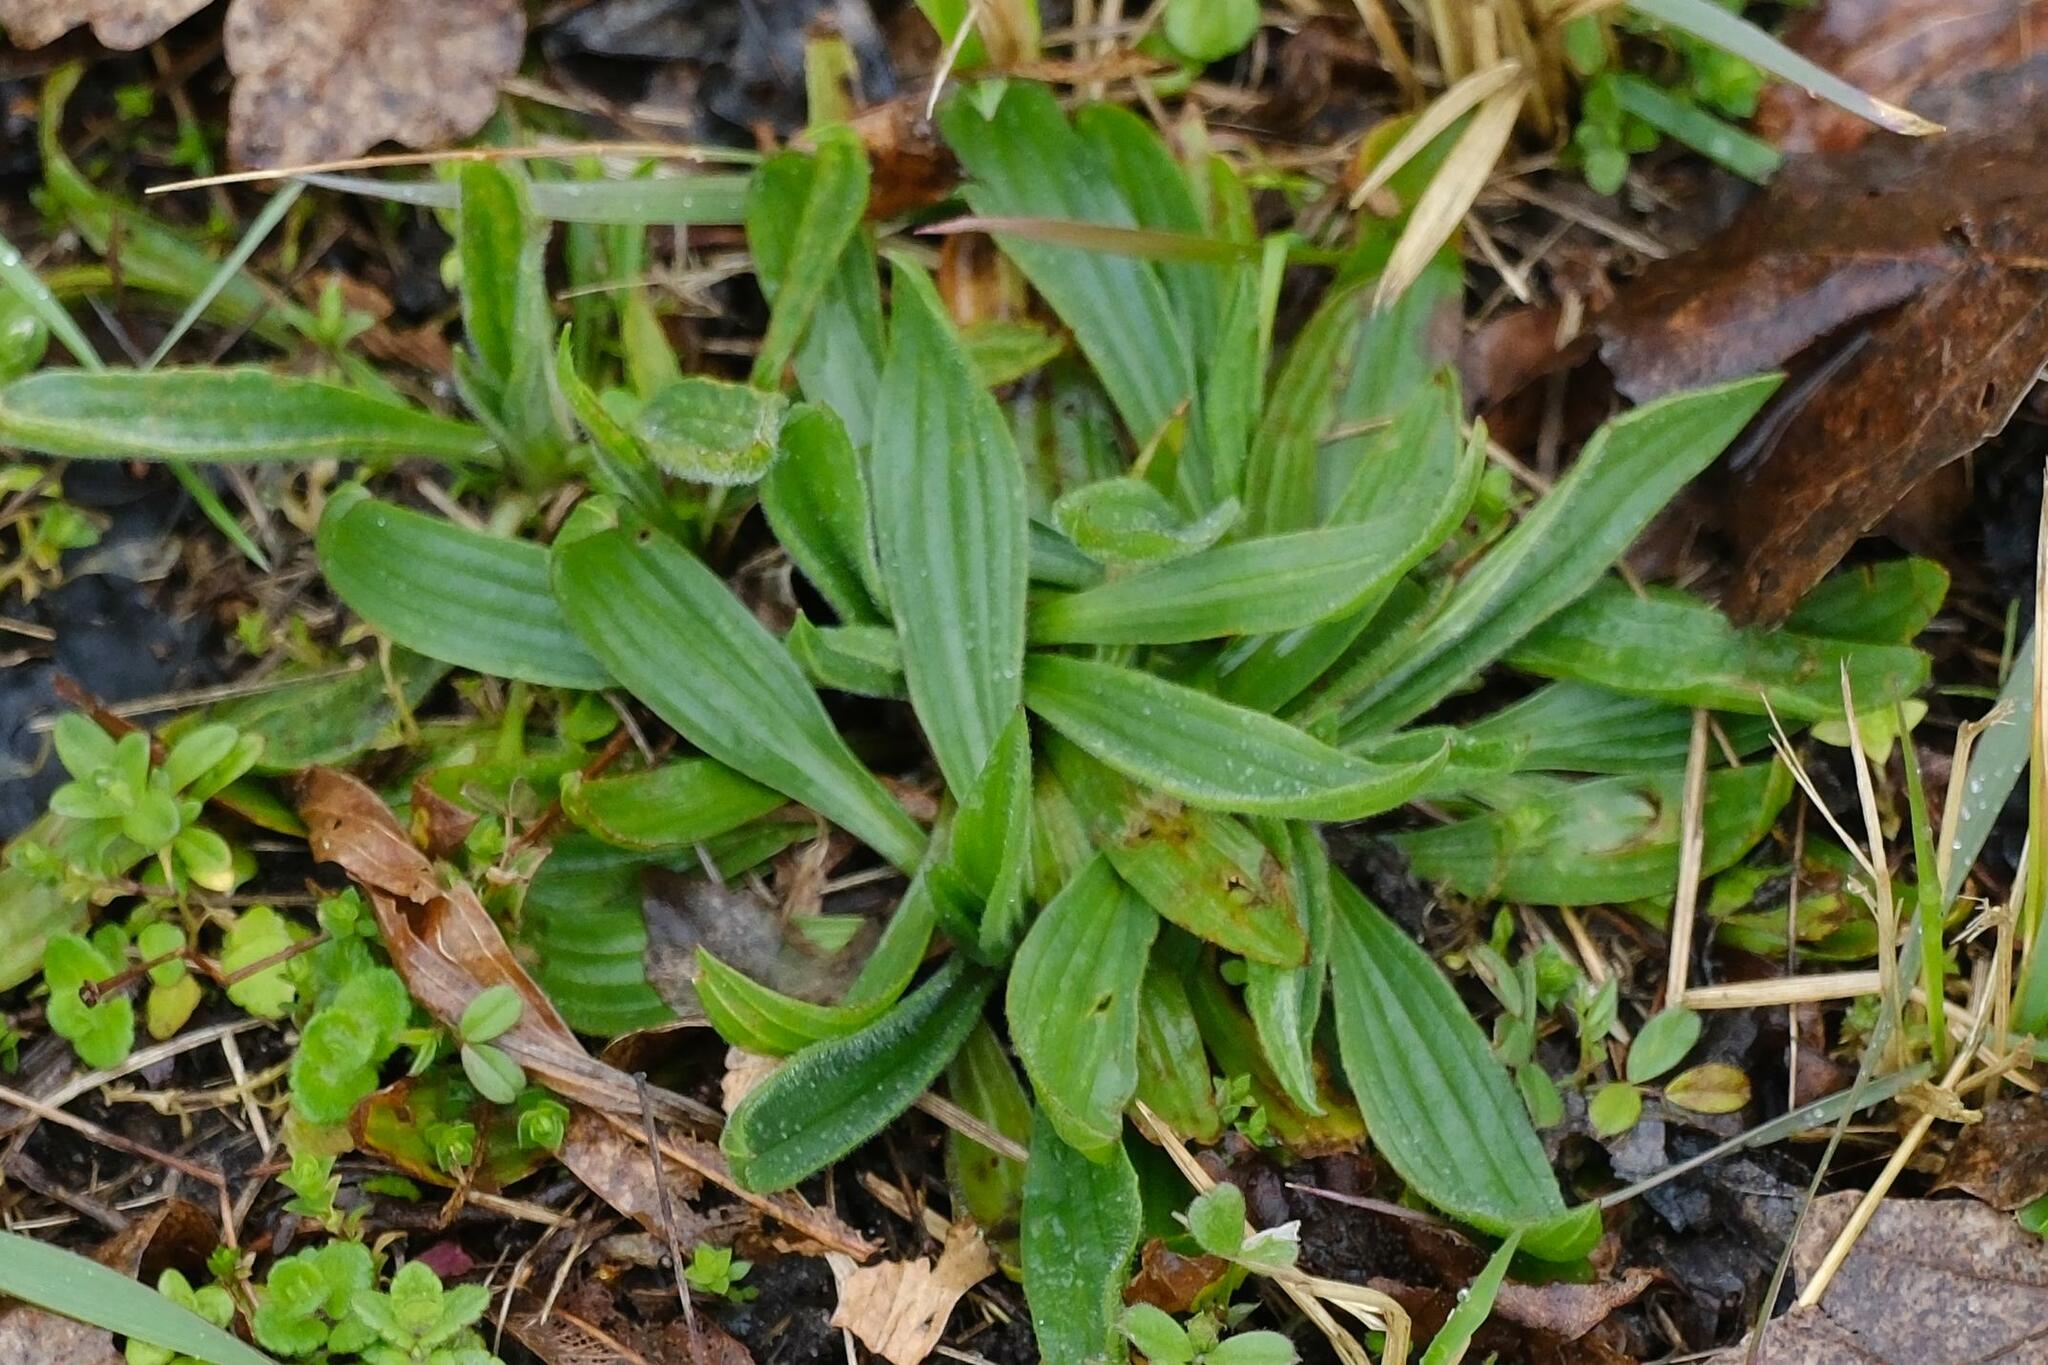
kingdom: Plantae
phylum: Tracheophyta
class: Magnoliopsida
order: Lamiales
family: Plantaginaceae
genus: Plantago
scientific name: Plantago lanceolata
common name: Ribwort plantain
